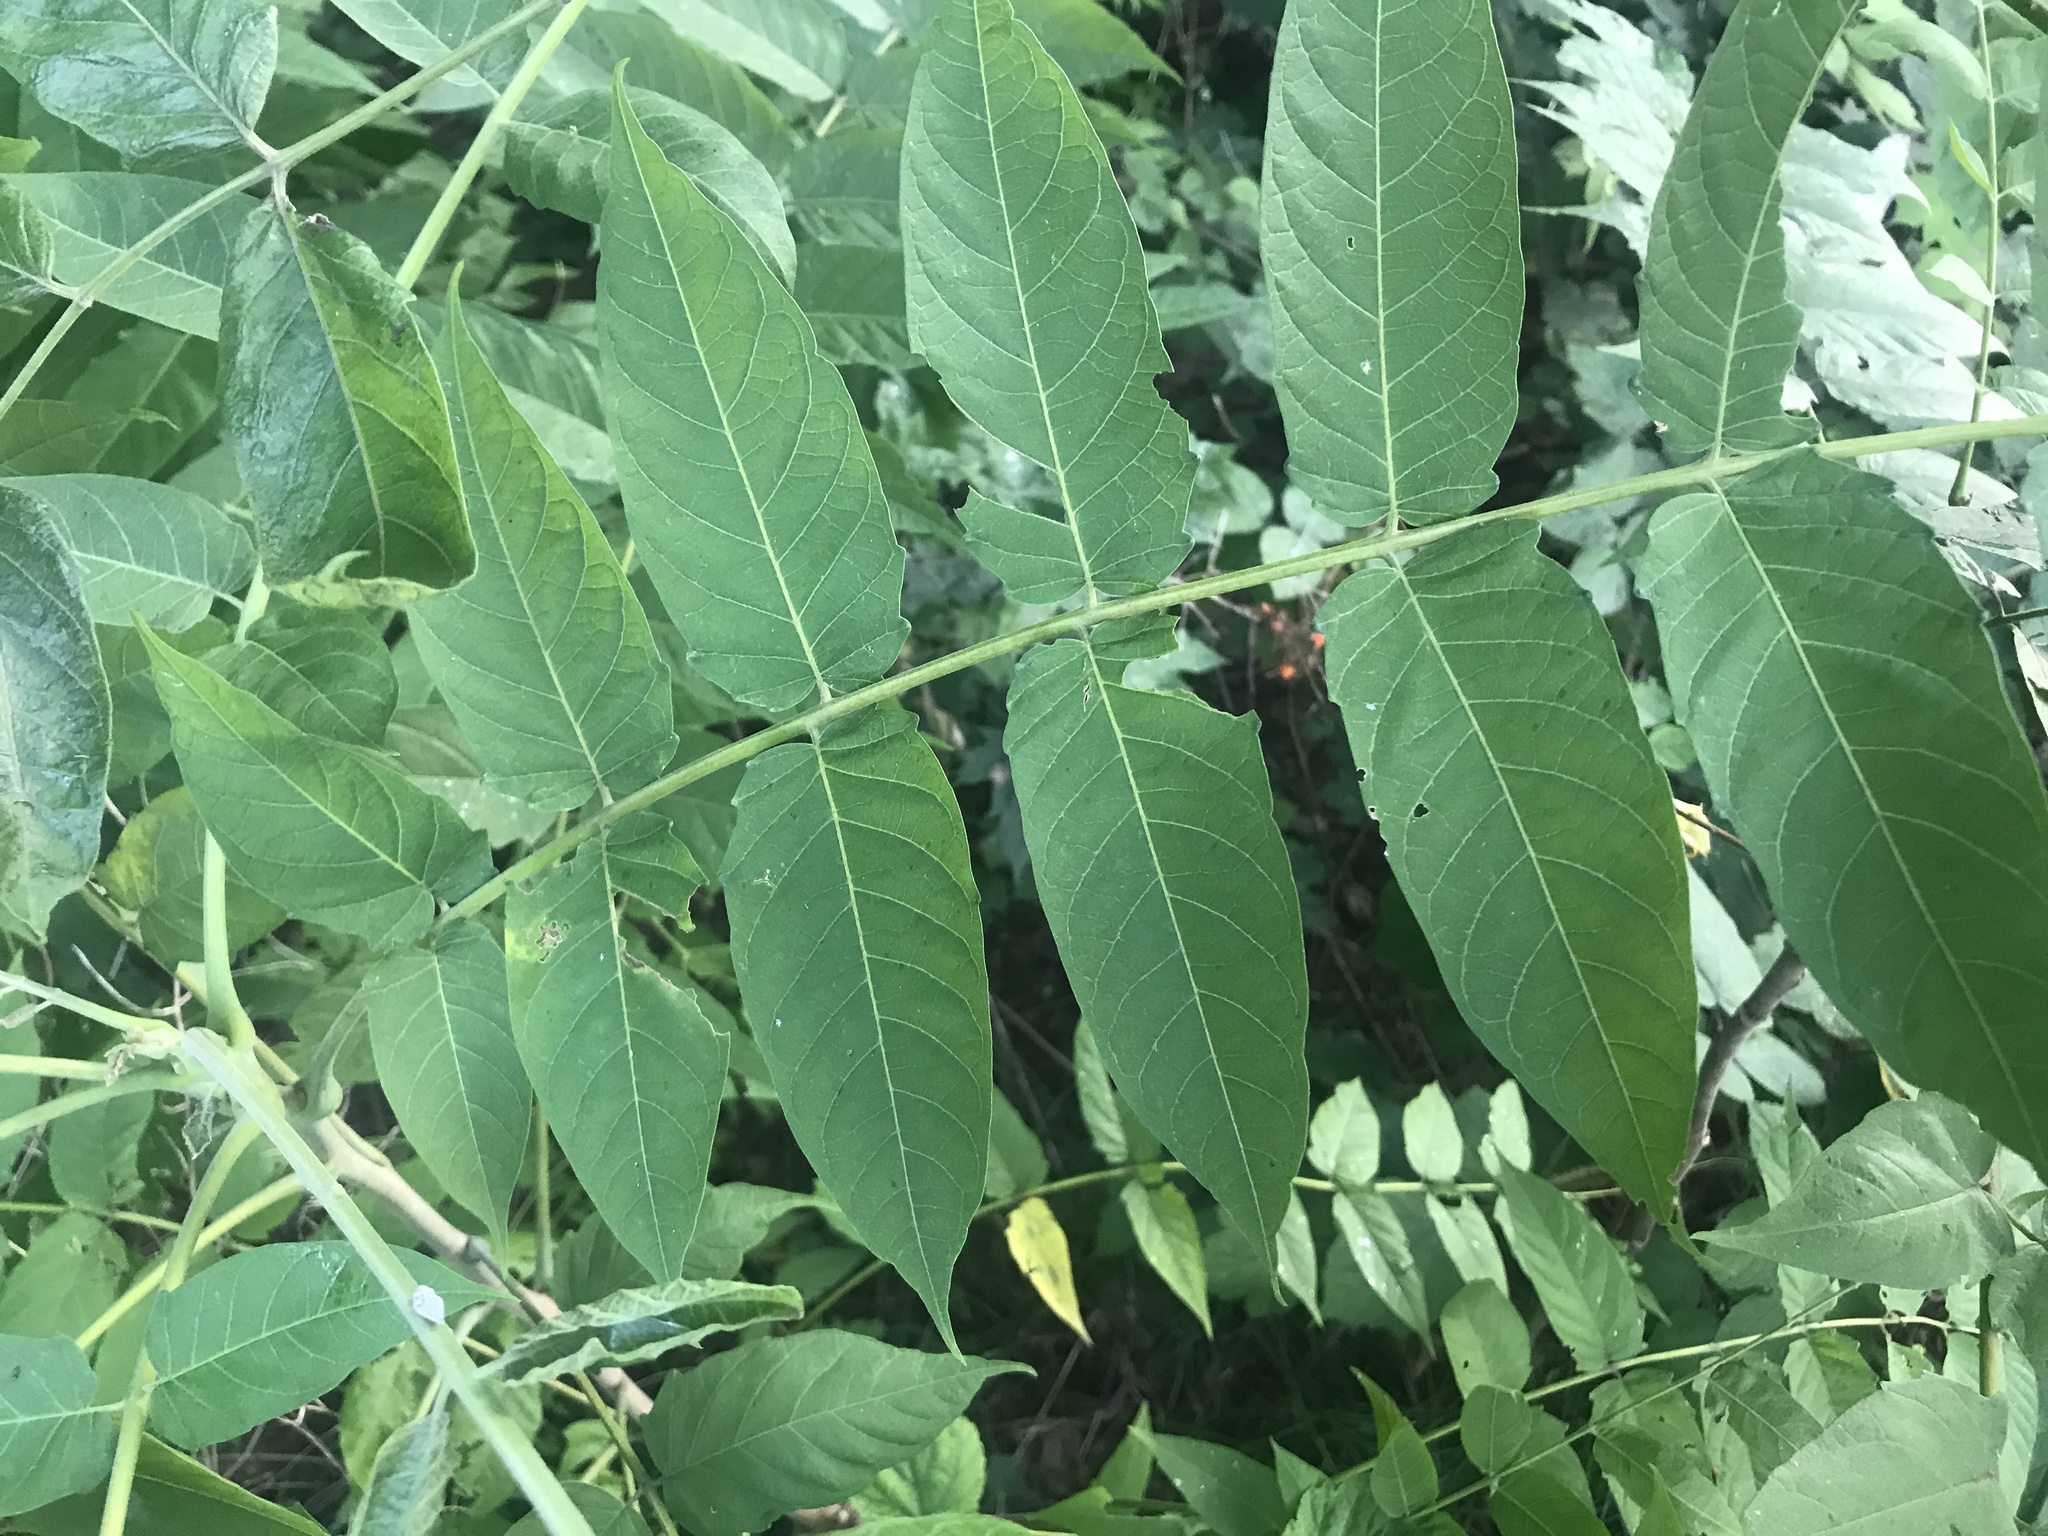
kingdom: Plantae
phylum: Tracheophyta
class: Magnoliopsida
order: Sapindales
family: Simaroubaceae
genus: Ailanthus
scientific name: Ailanthus altissima
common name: Tree-of-heaven
